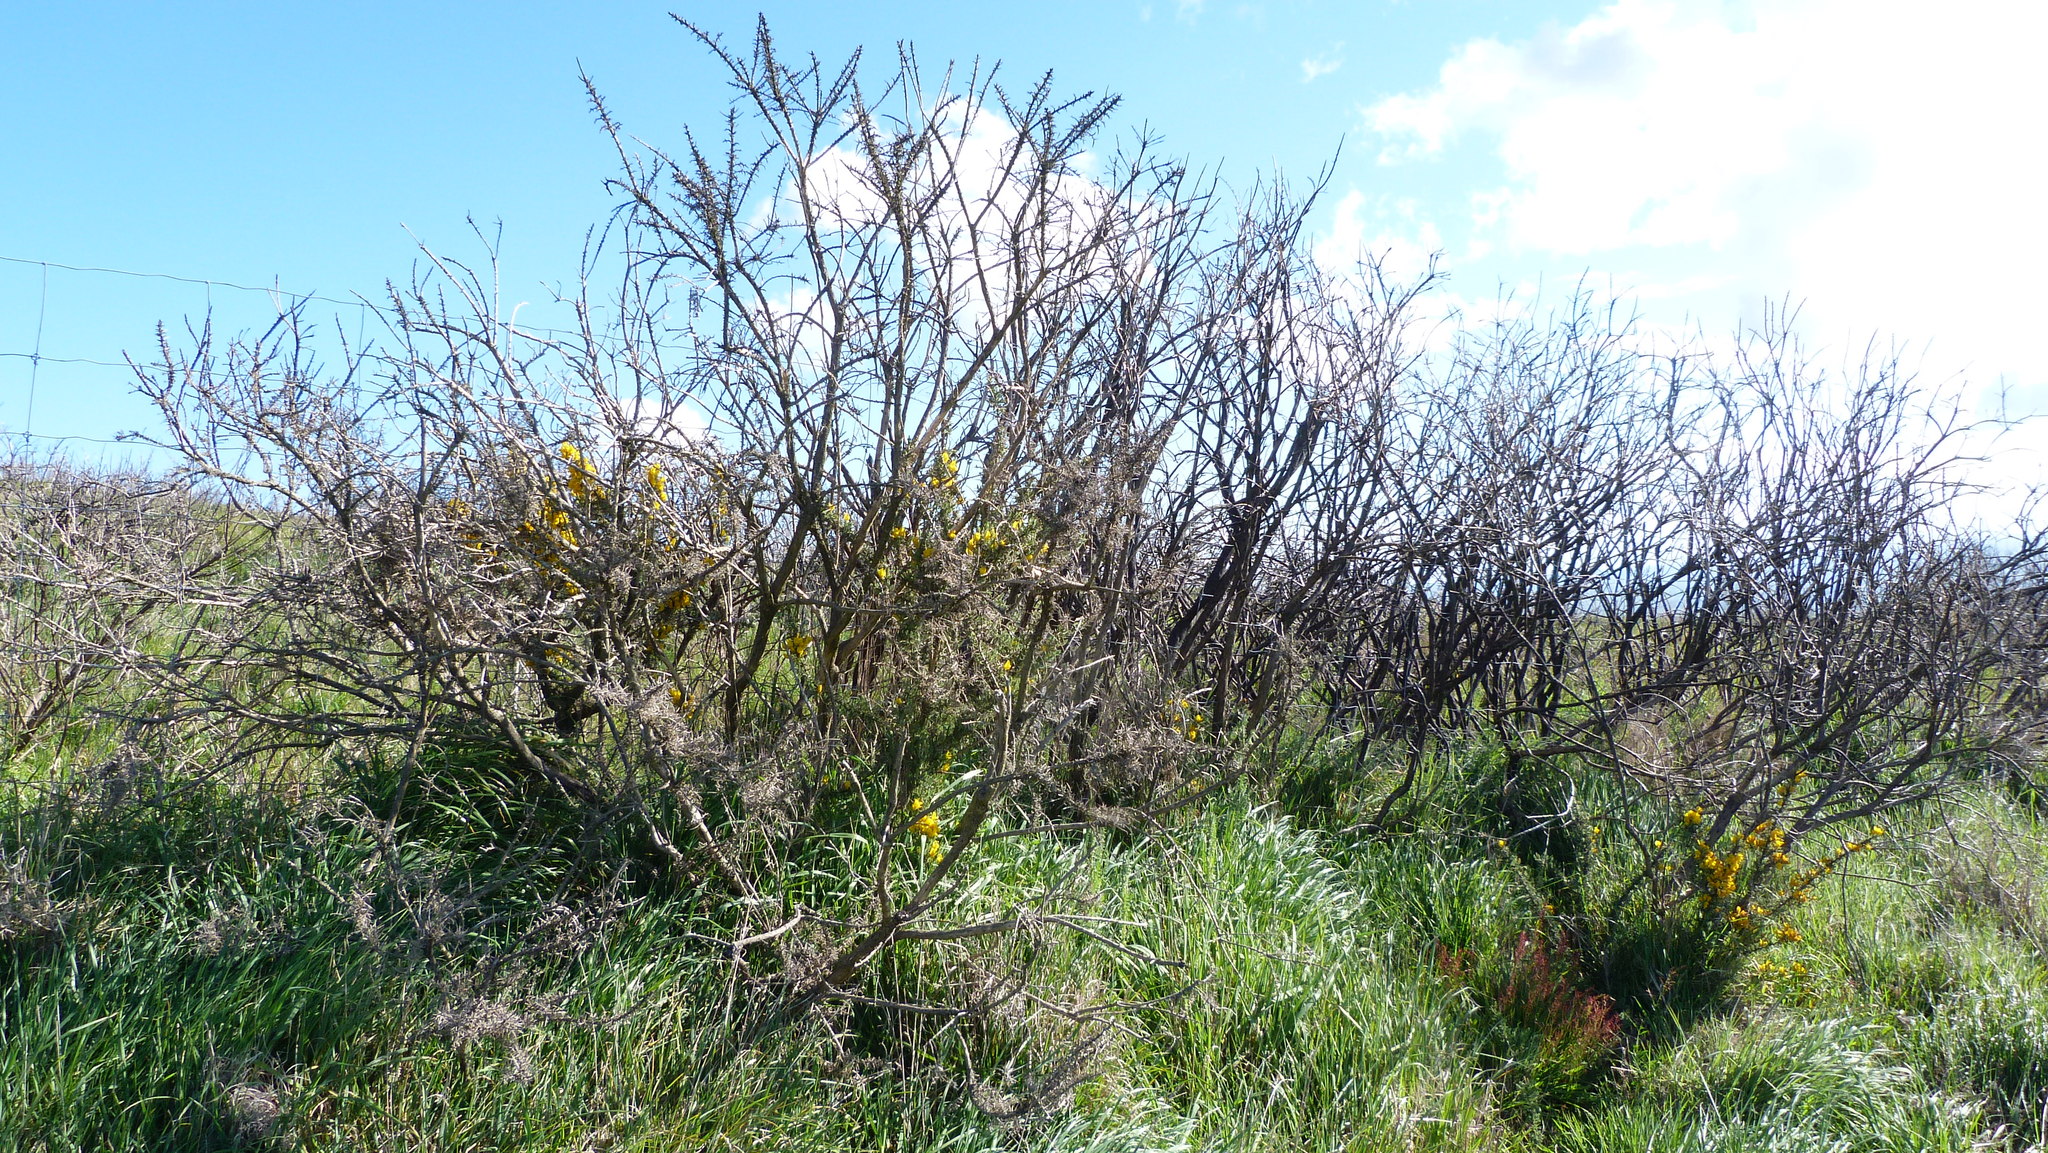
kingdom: Plantae
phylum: Tracheophyta
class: Magnoliopsida
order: Fabales
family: Fabaceae
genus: Ulex
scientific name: Ulex europaeus
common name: Common gorse
